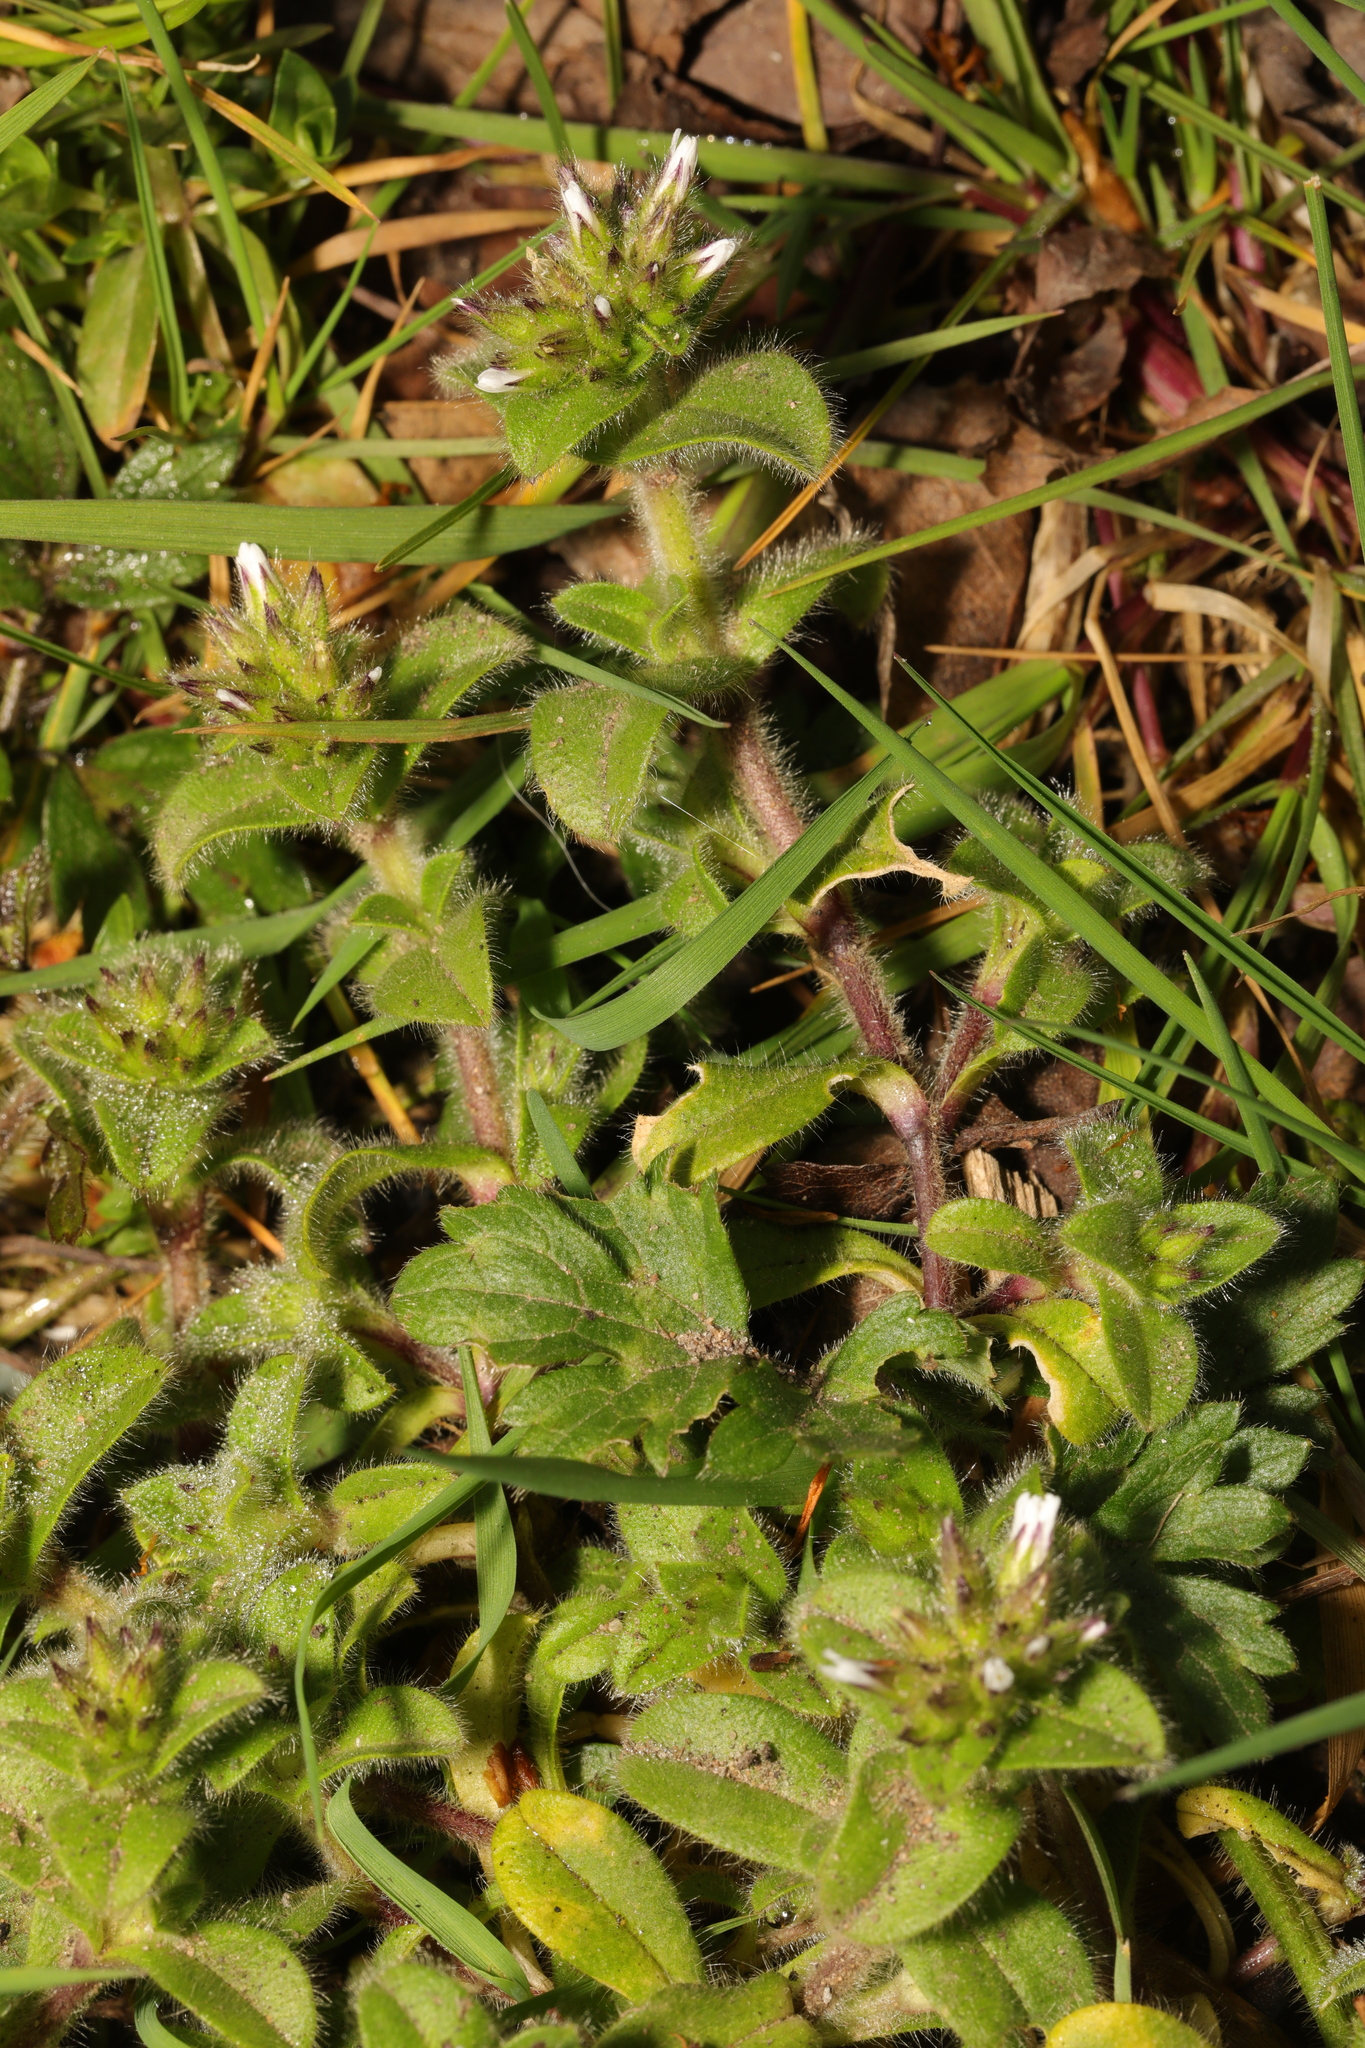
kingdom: Plantae
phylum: Tracheophyta
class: Magnoliopsida
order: Caryophyllales
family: Caryophyllaceae
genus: Cerastium
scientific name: Cerastium glomeratum
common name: Sticky chickweed
